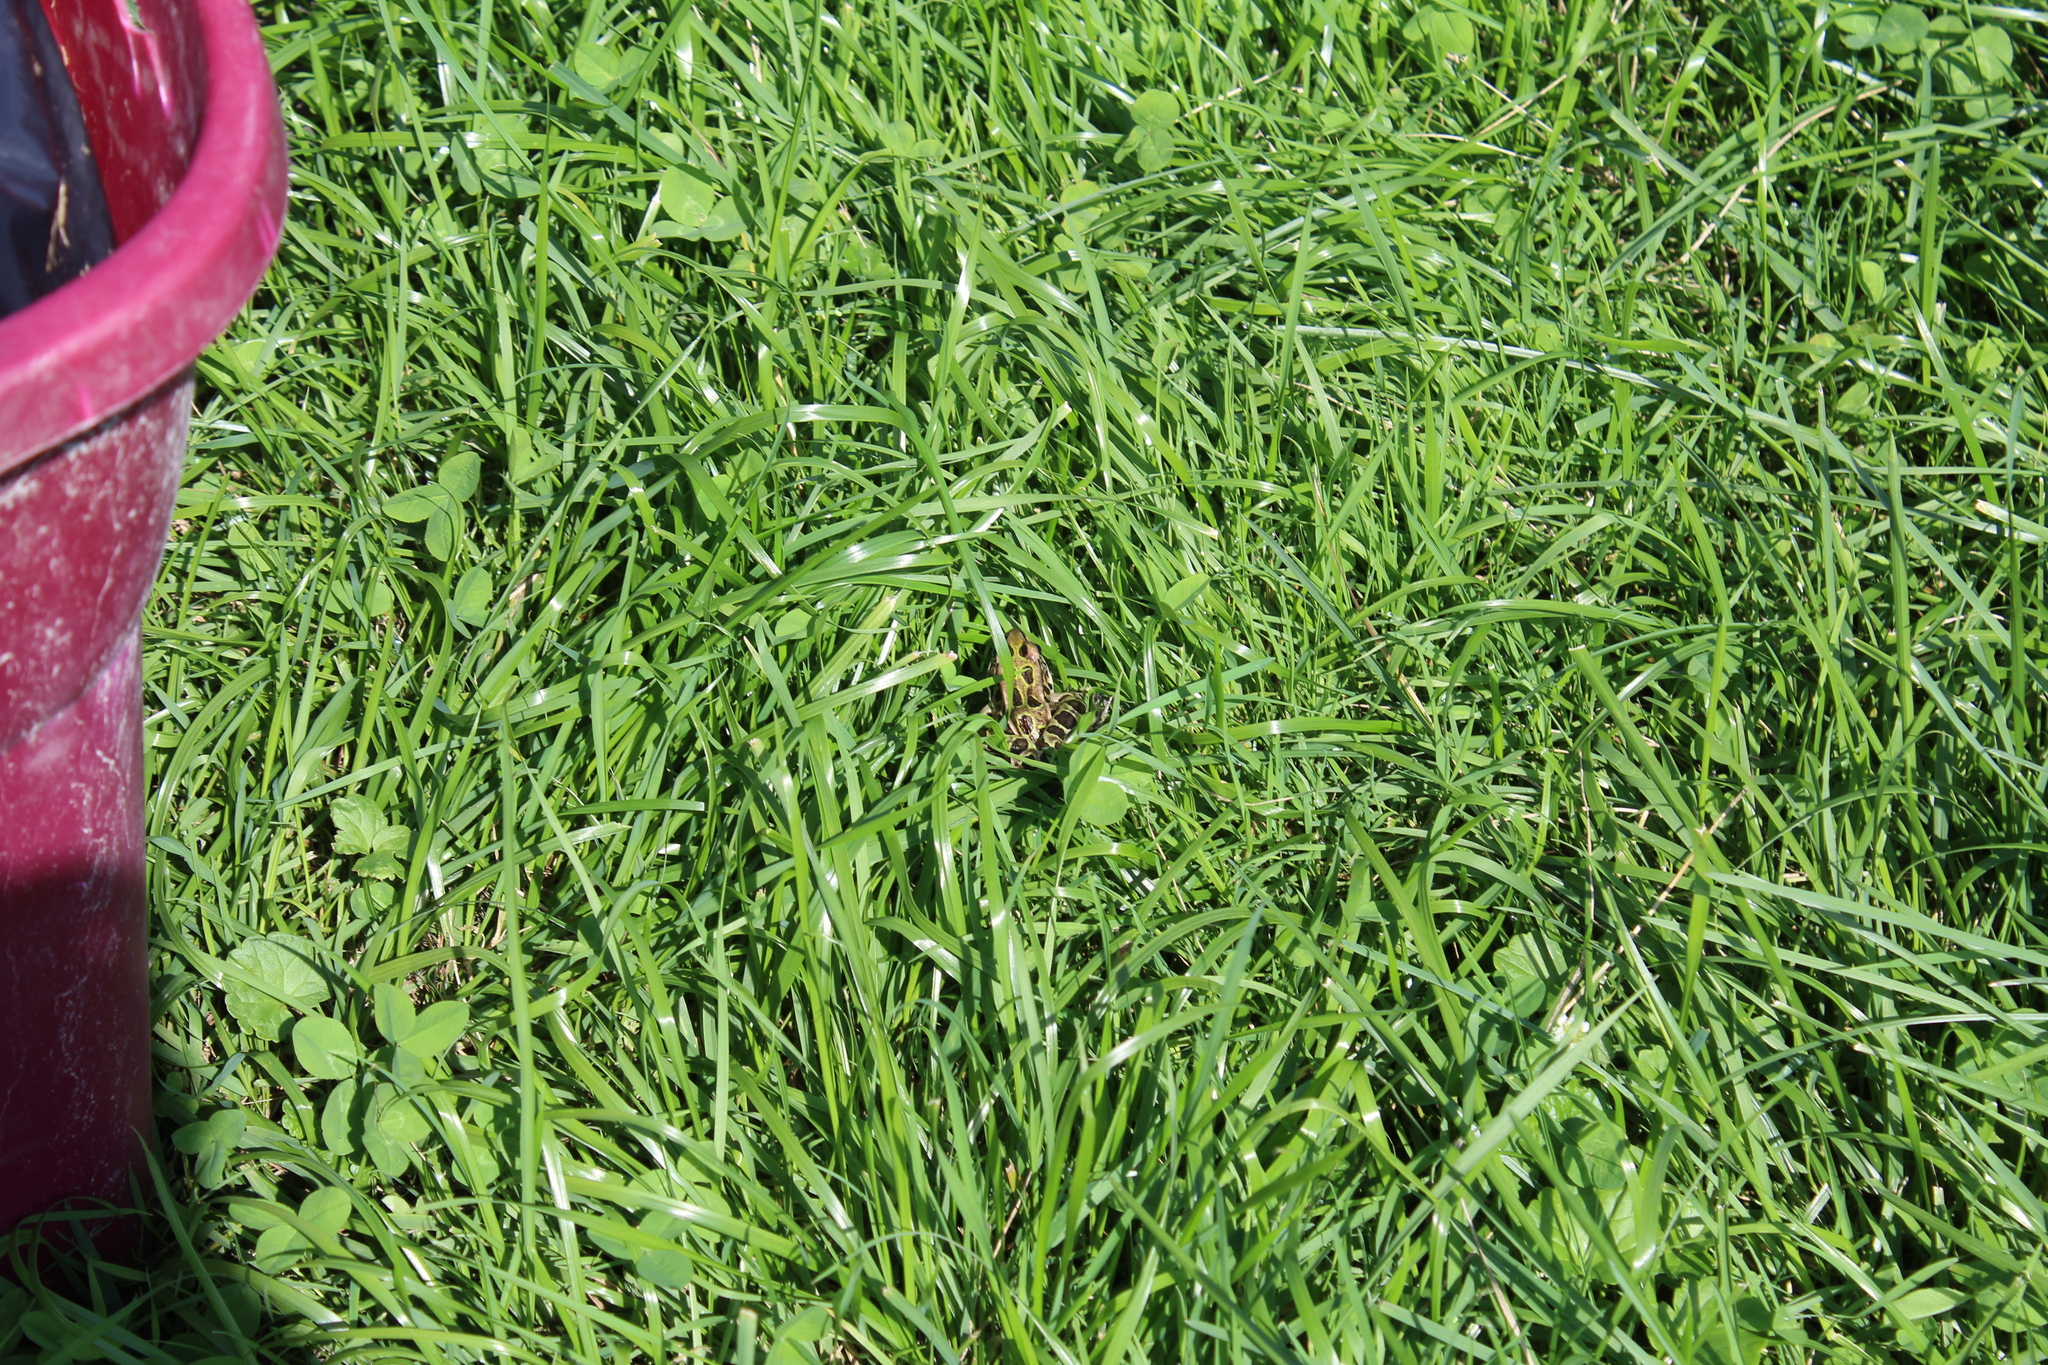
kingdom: Animalia
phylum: Chordata
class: Amphibia
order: Anura
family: Ranidae
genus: Lithobates
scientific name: Lithobates pipiens
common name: Northern leopard frog
